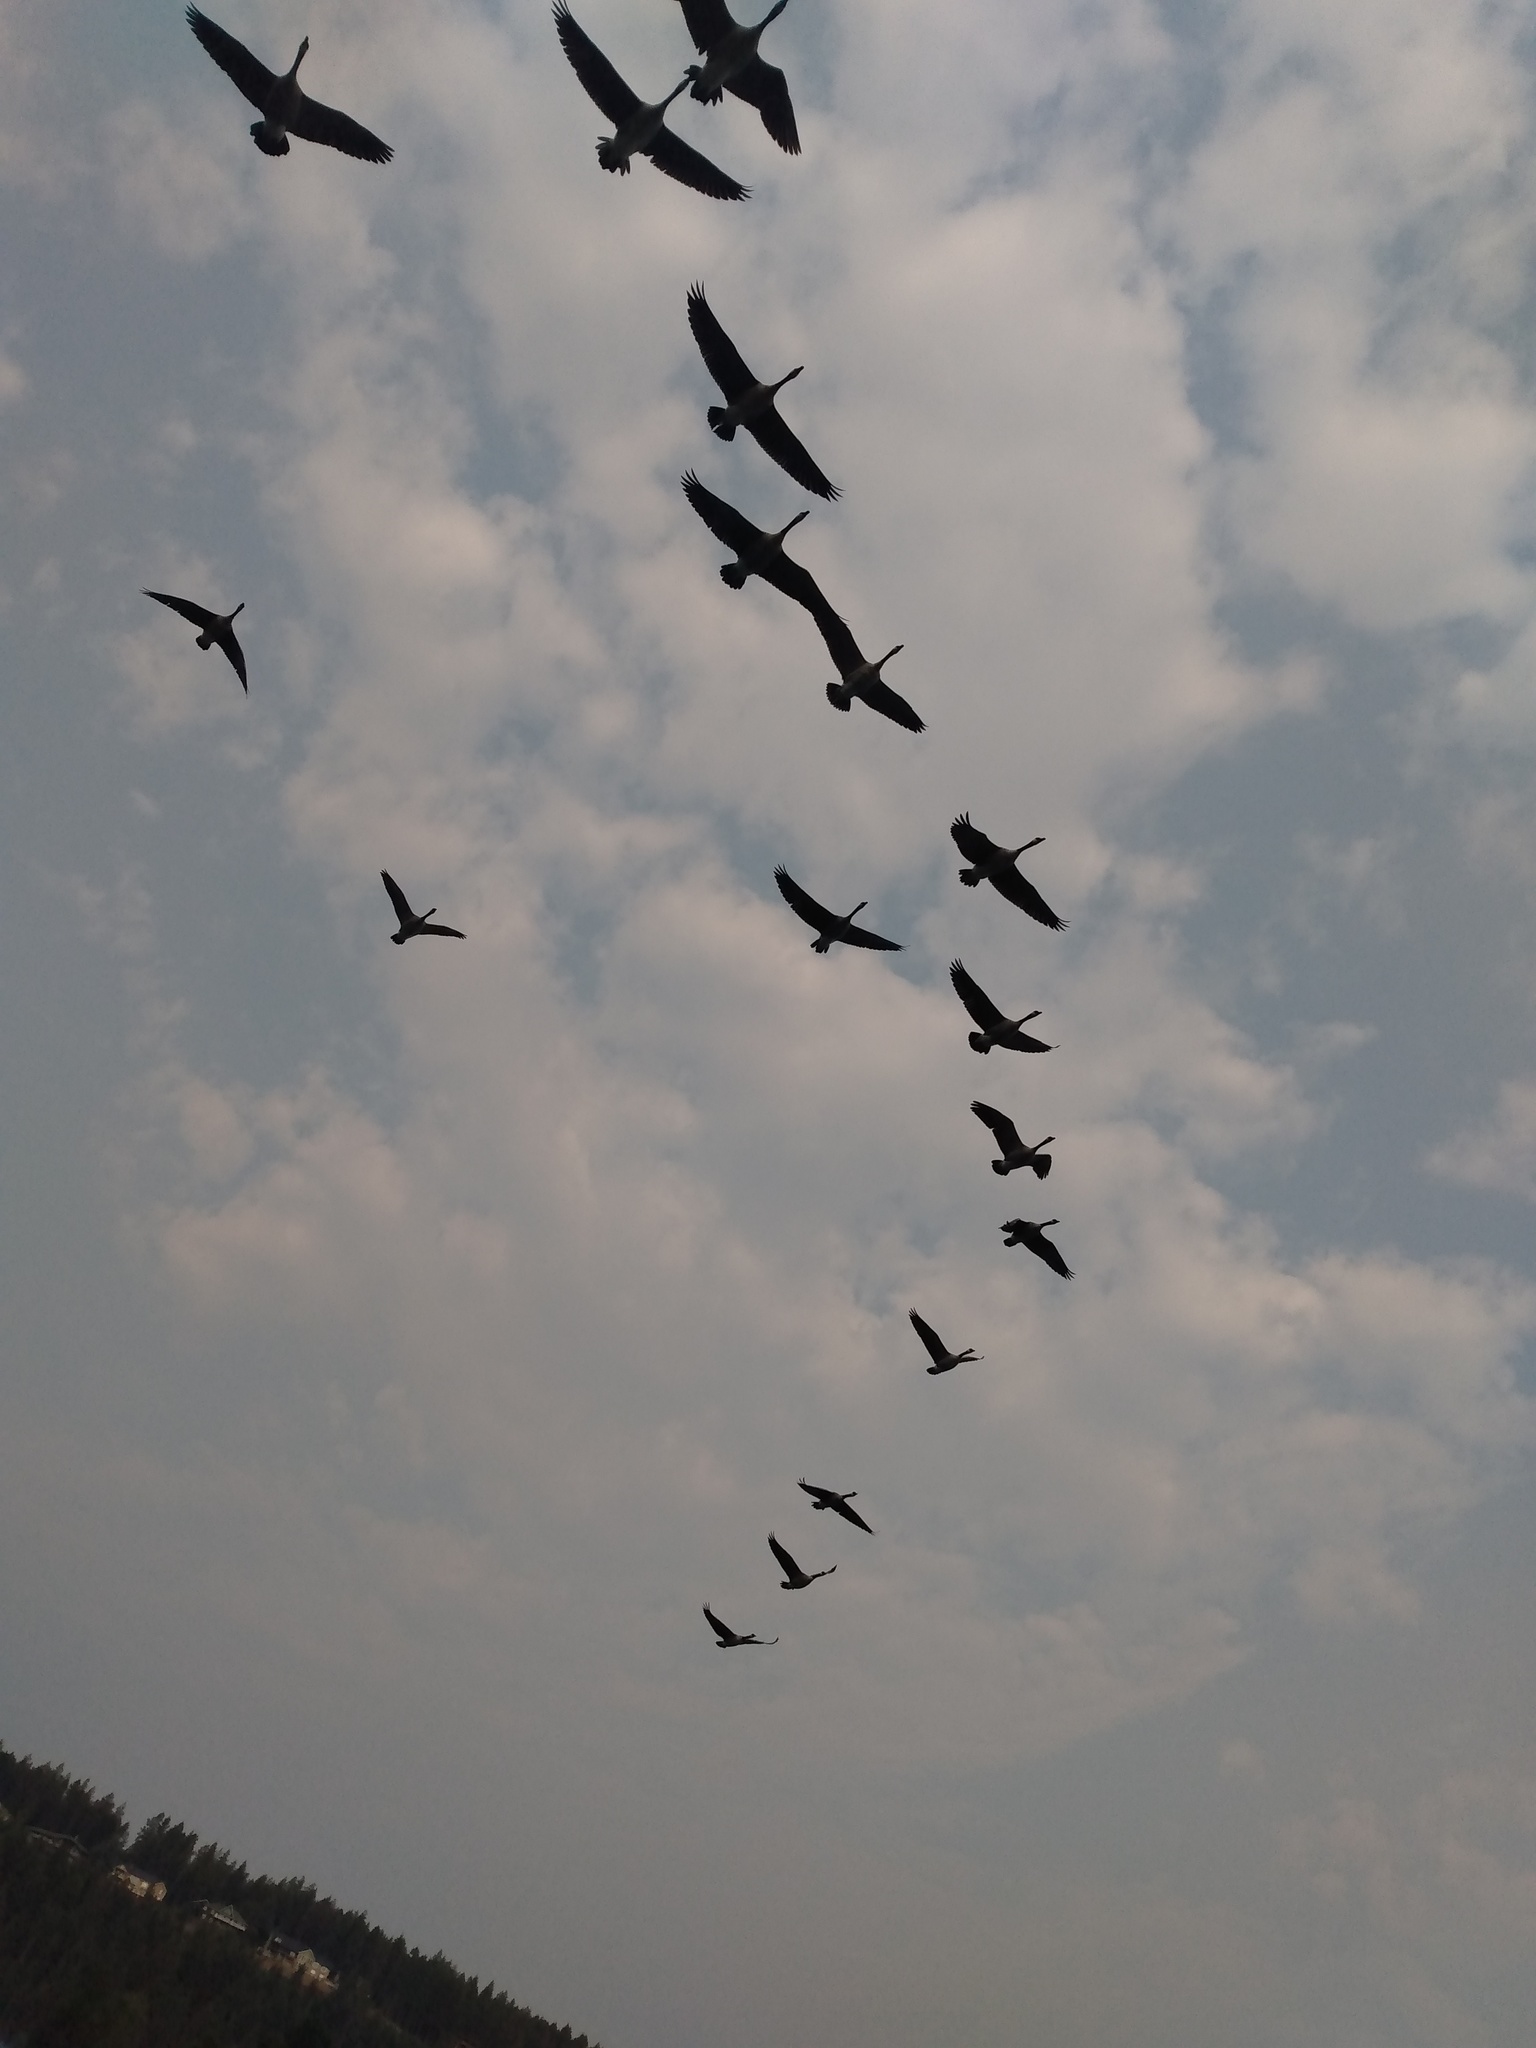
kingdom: Animalia
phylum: Chordata
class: Aves
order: Anseriformes
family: Anatidae
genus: Branta
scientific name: Branta canadensis
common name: Canada goose
